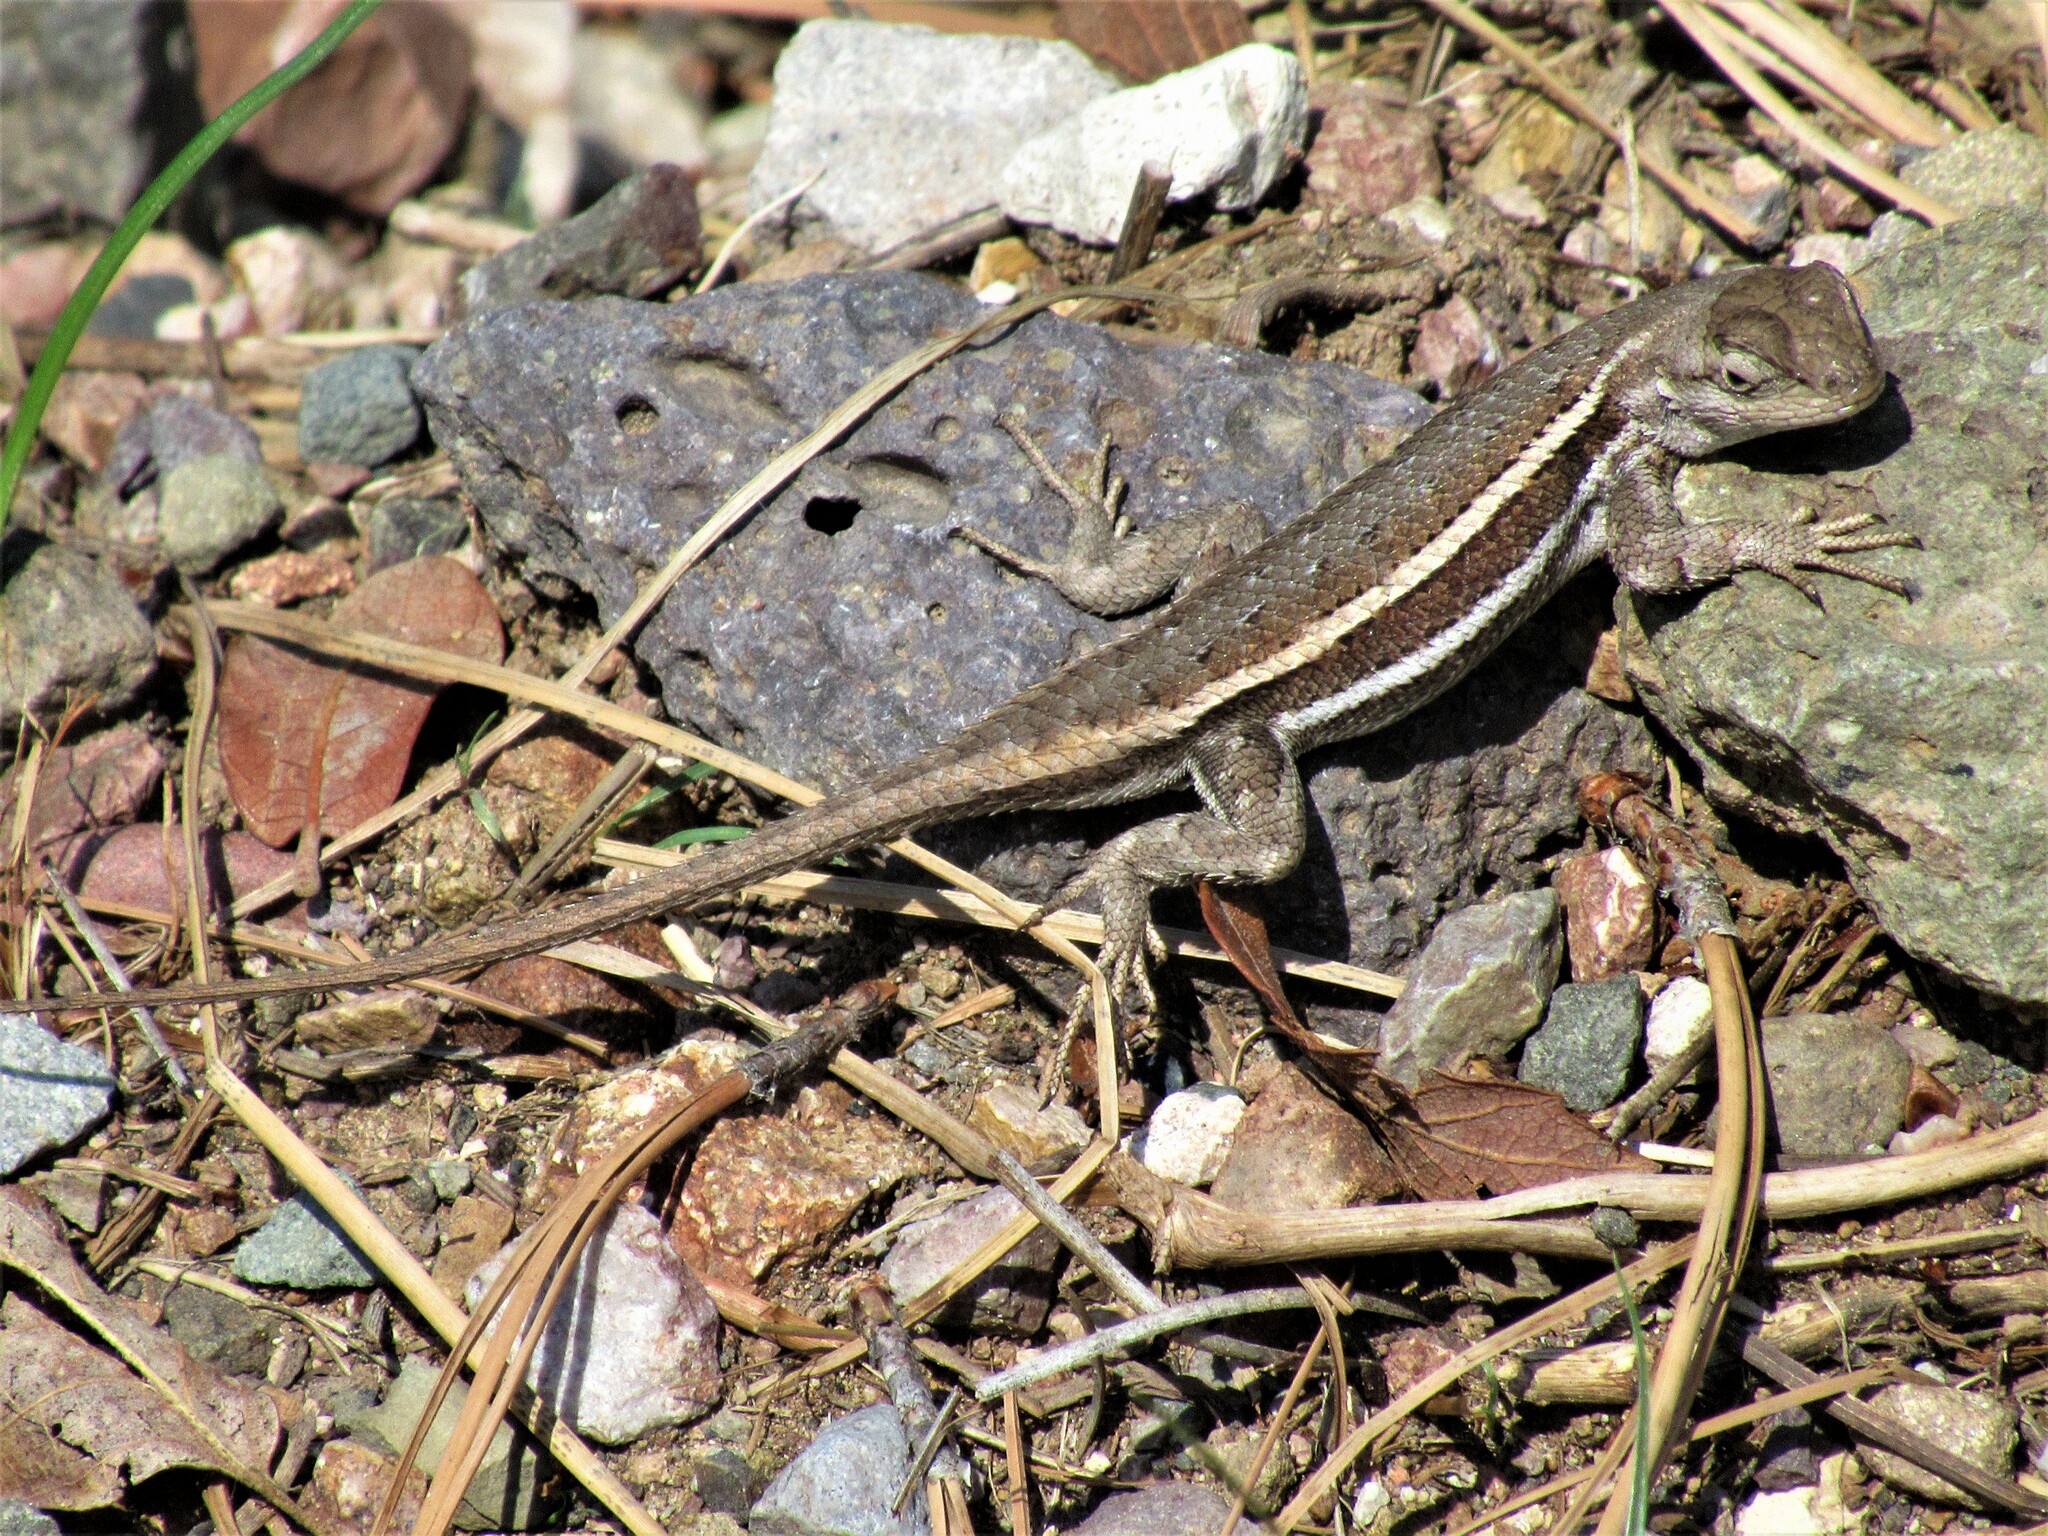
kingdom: Animalia
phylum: Chordata
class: Squamata
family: Phrynosomatidae
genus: Sceloporus
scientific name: Sceloporus virgatus
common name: Striped plateau lizard
